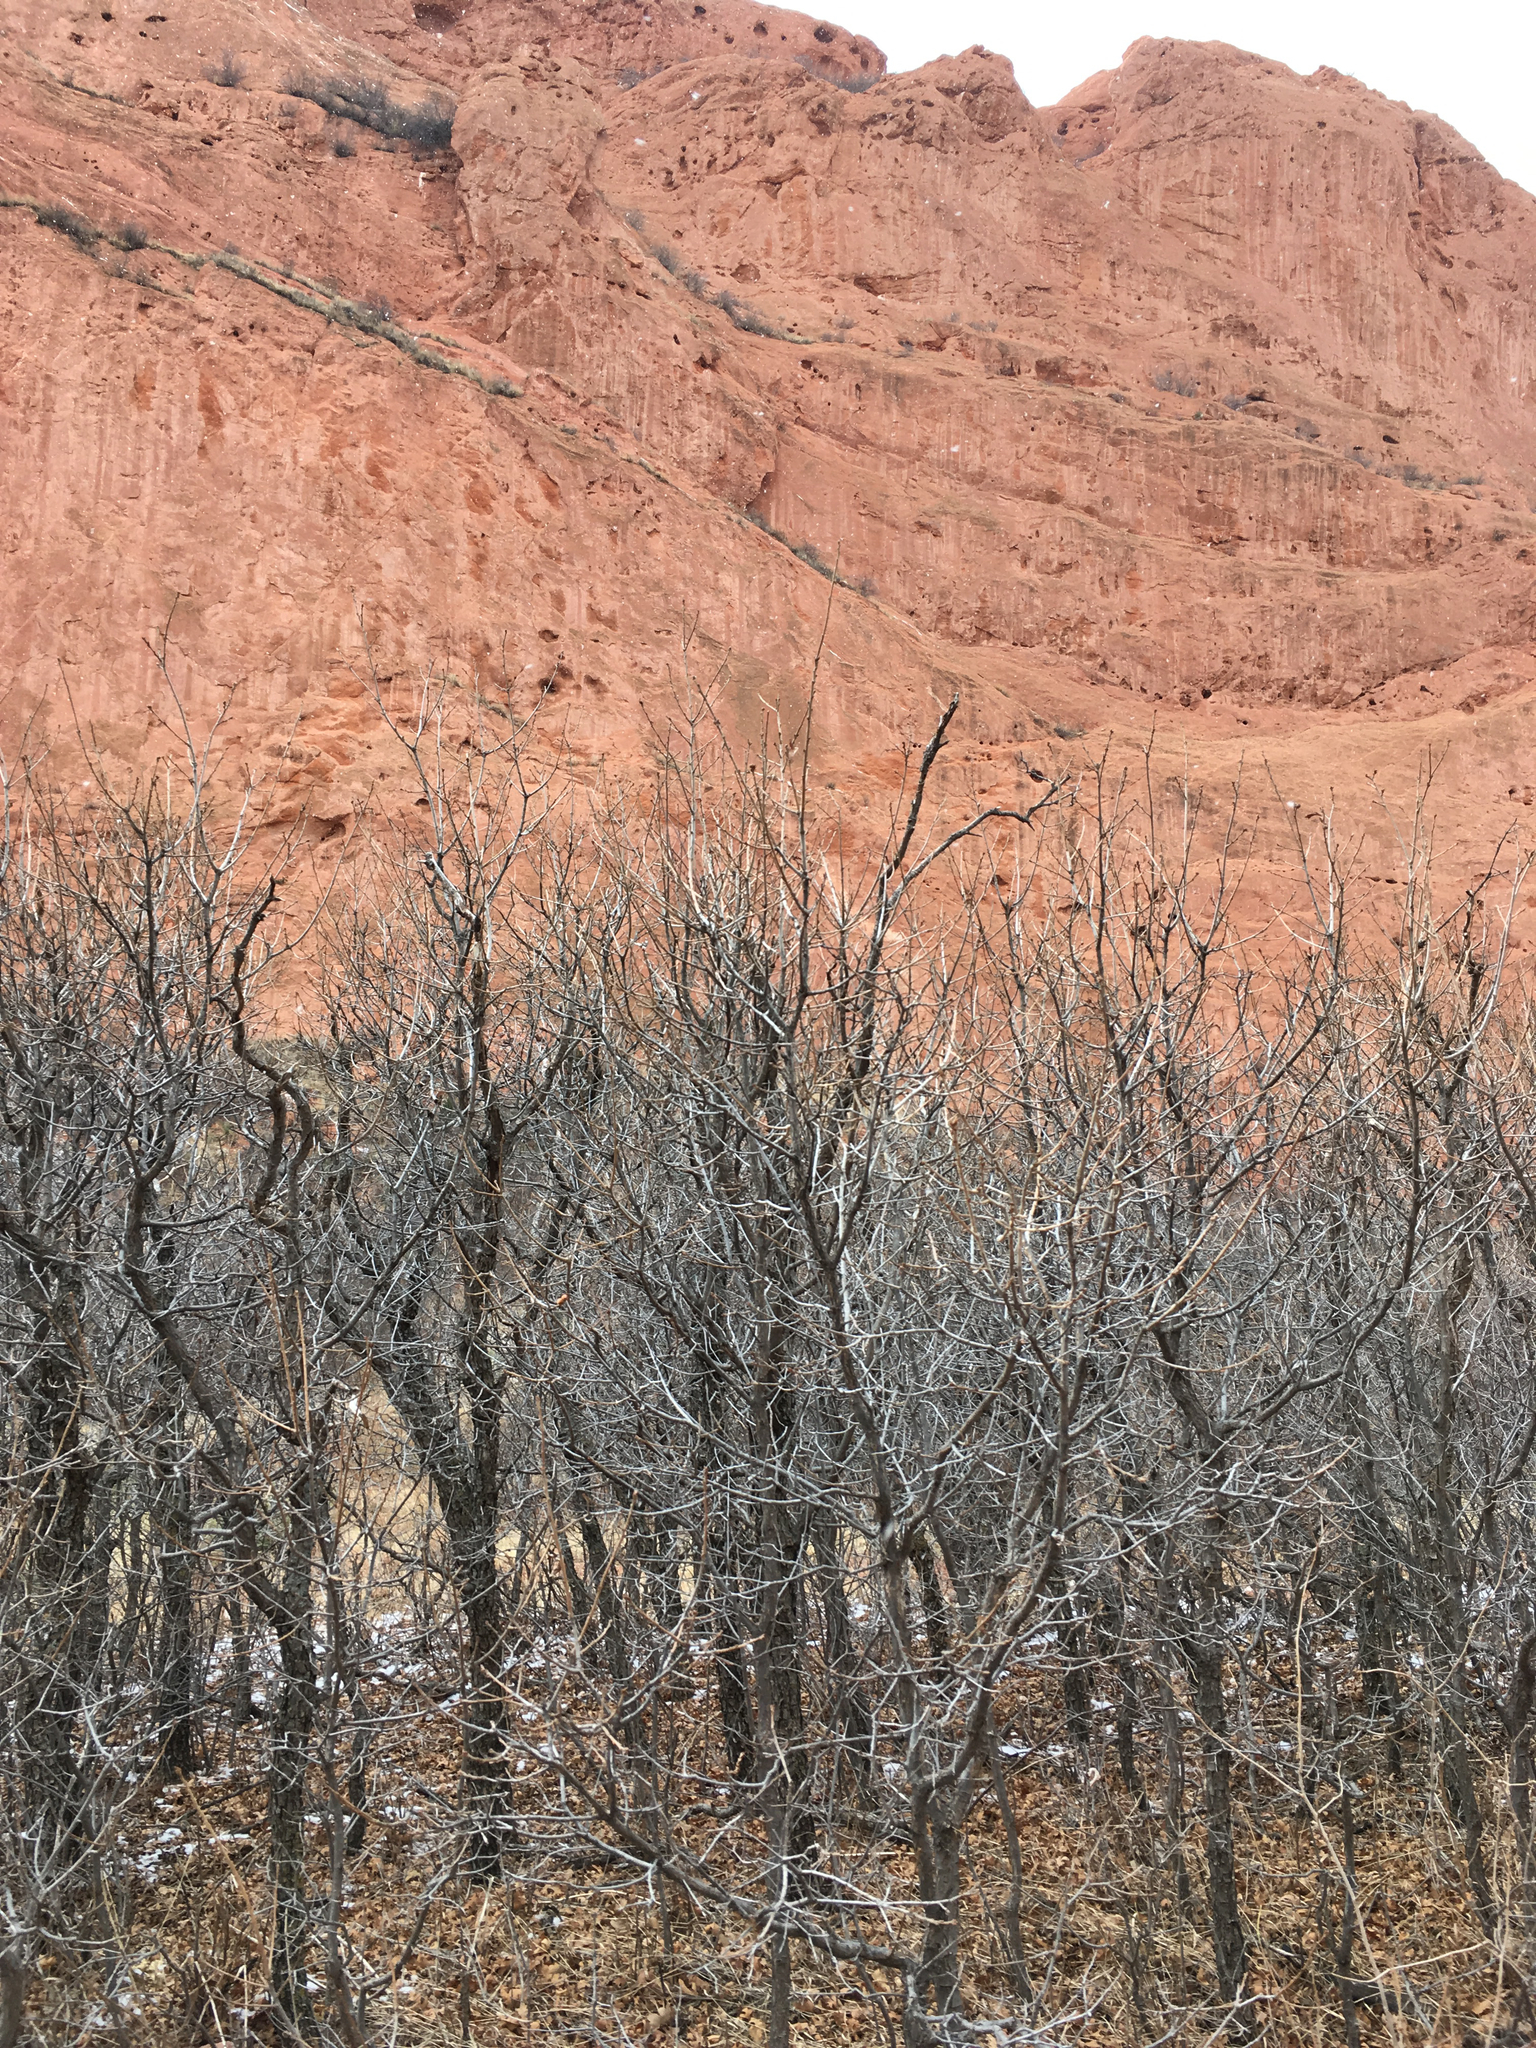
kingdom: Plantae
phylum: Tracheophyta
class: Magnoliopsida
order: Fagales
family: Fagaceae
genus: Quercus
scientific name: Quercus gambelii
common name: Gambel oak
